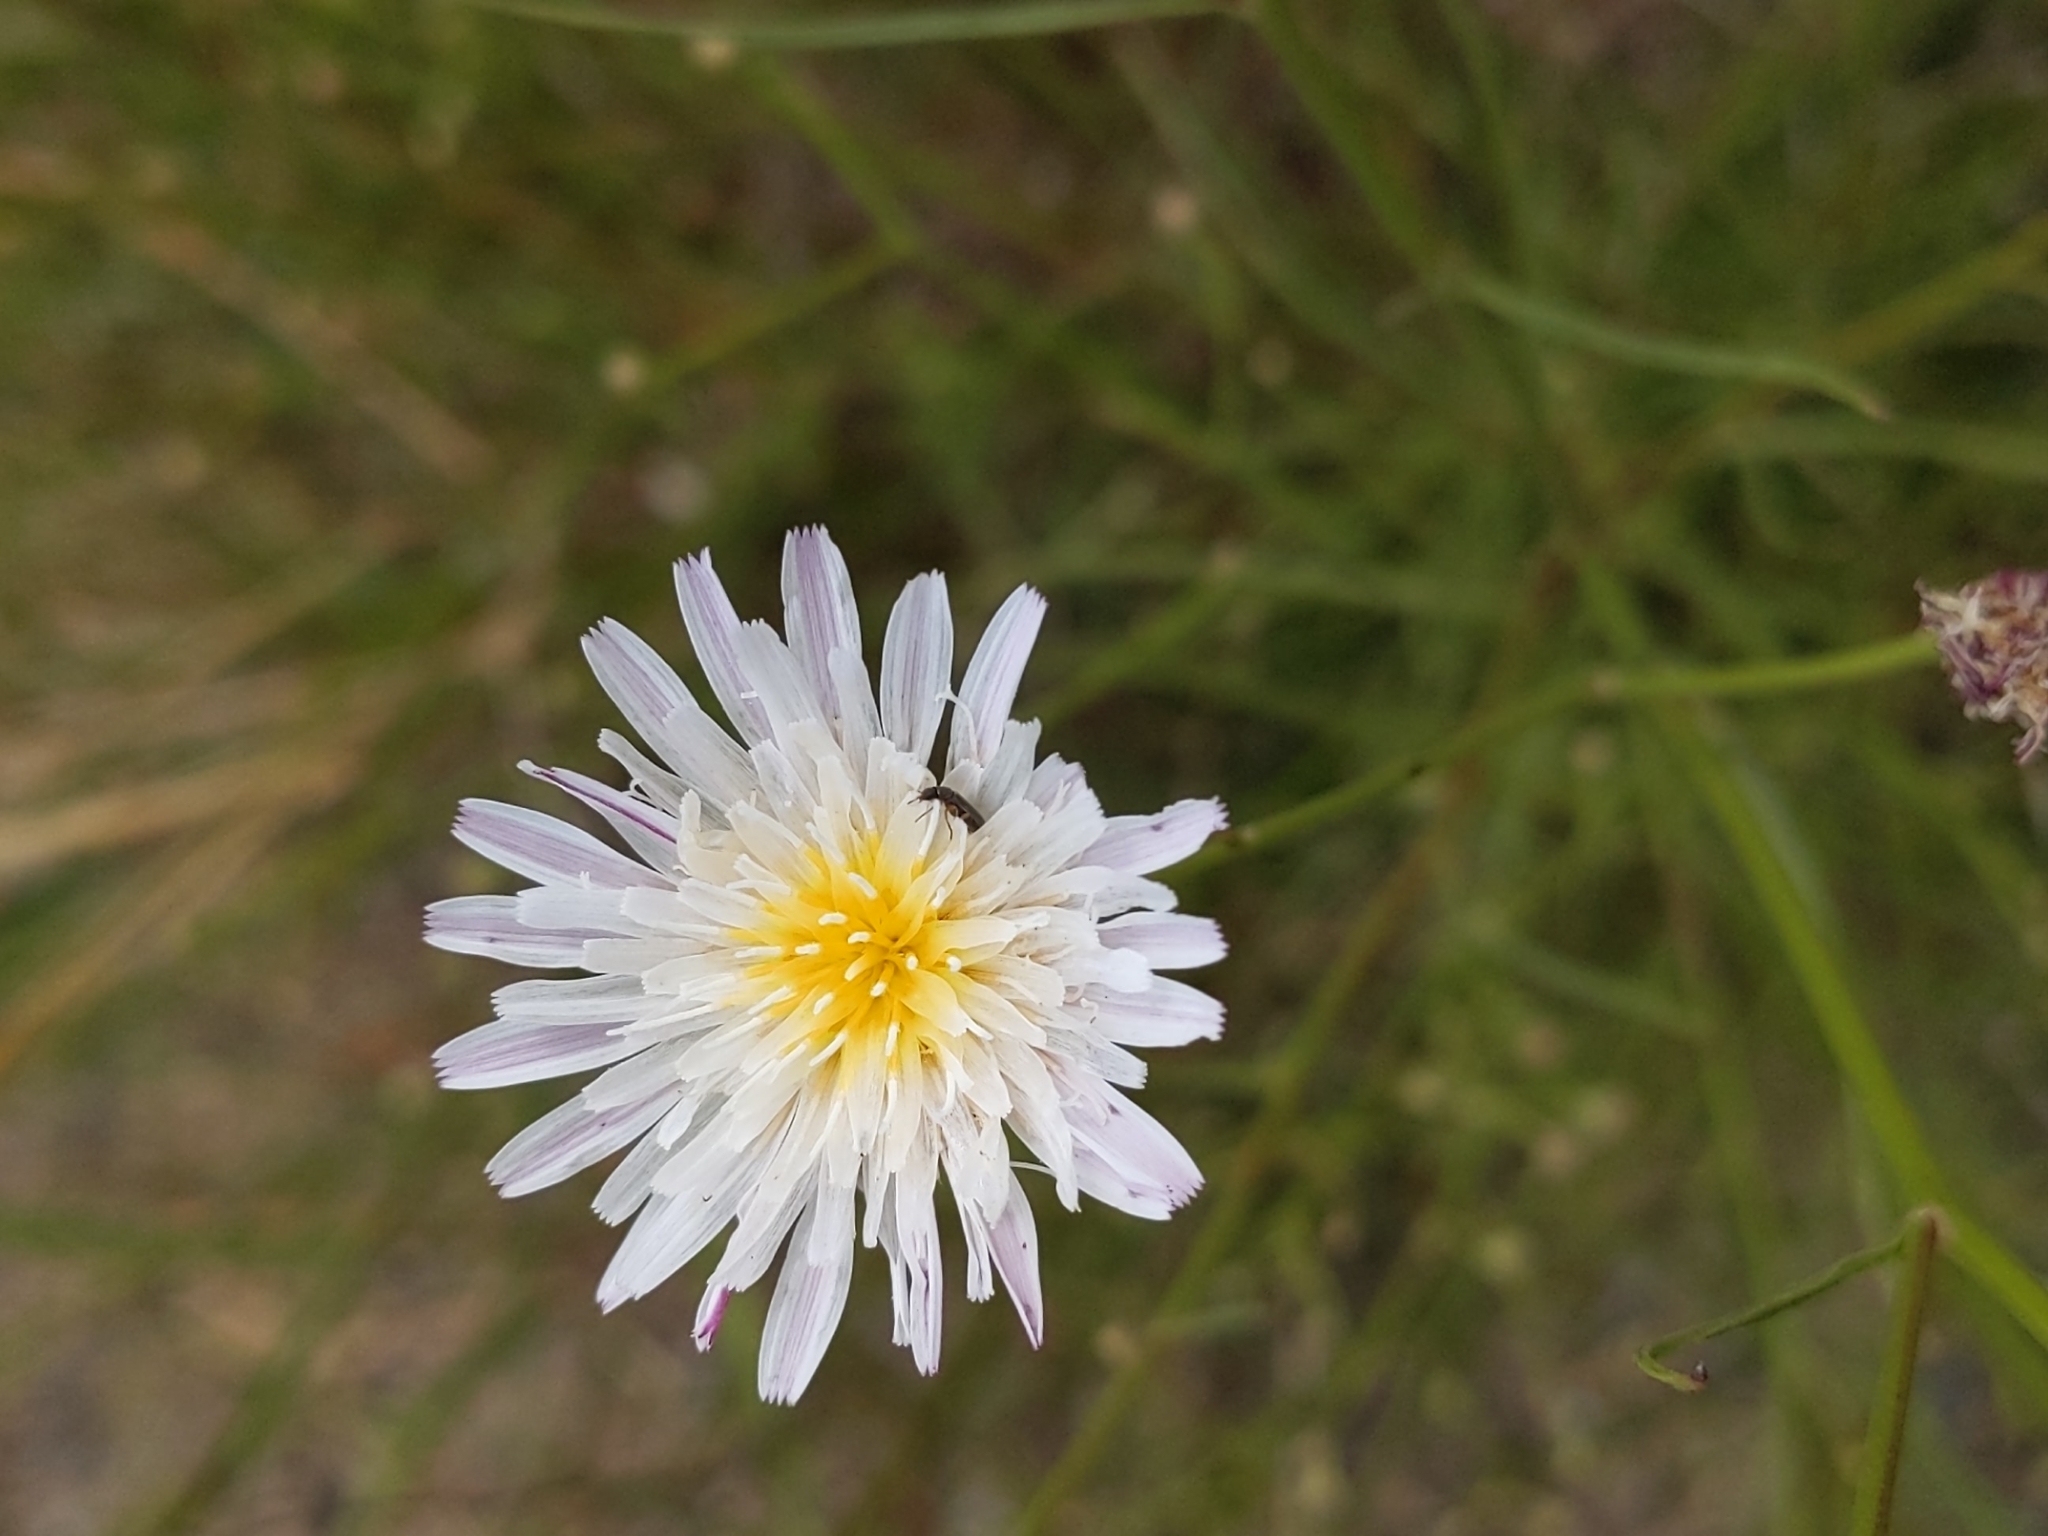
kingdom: Plantae
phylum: Tracheophyta
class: Magnoliopsida
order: Asterales
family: Asteraceae
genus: Malacothrix
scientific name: Malacothrix saxatilis
